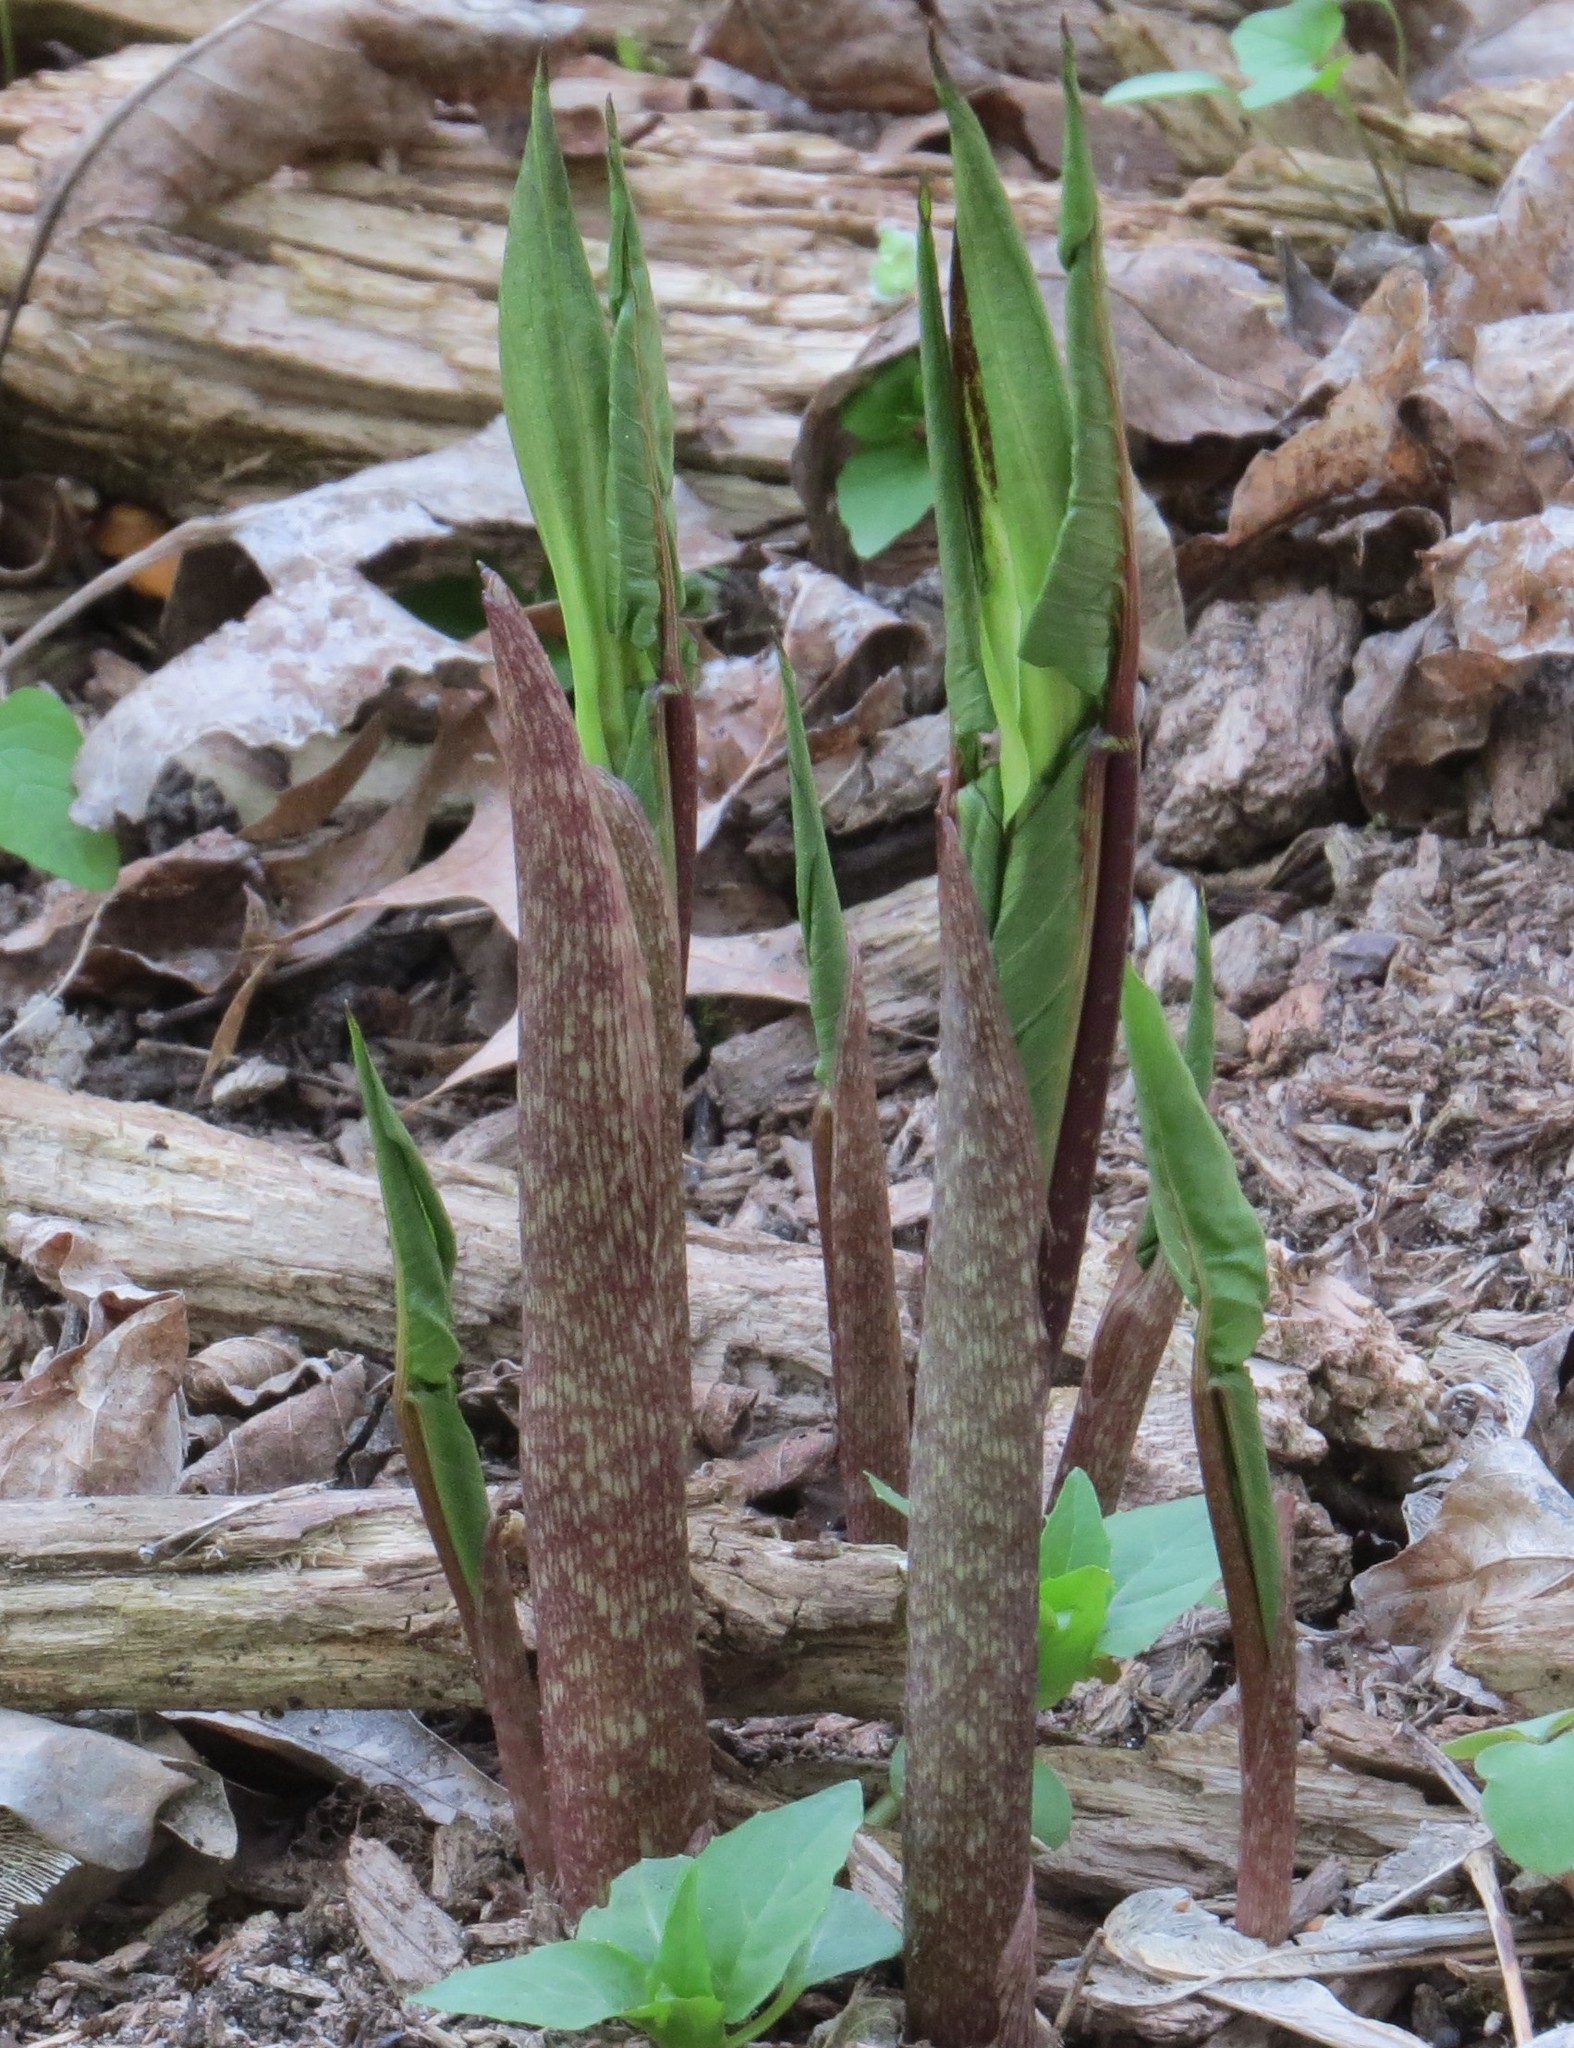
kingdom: Plantae
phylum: Tracheophyta
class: Liliopsida
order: Alismatales
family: Araceae
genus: Arisaema
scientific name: Arisaema triphyllum
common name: Jack-in-the-pulpit
